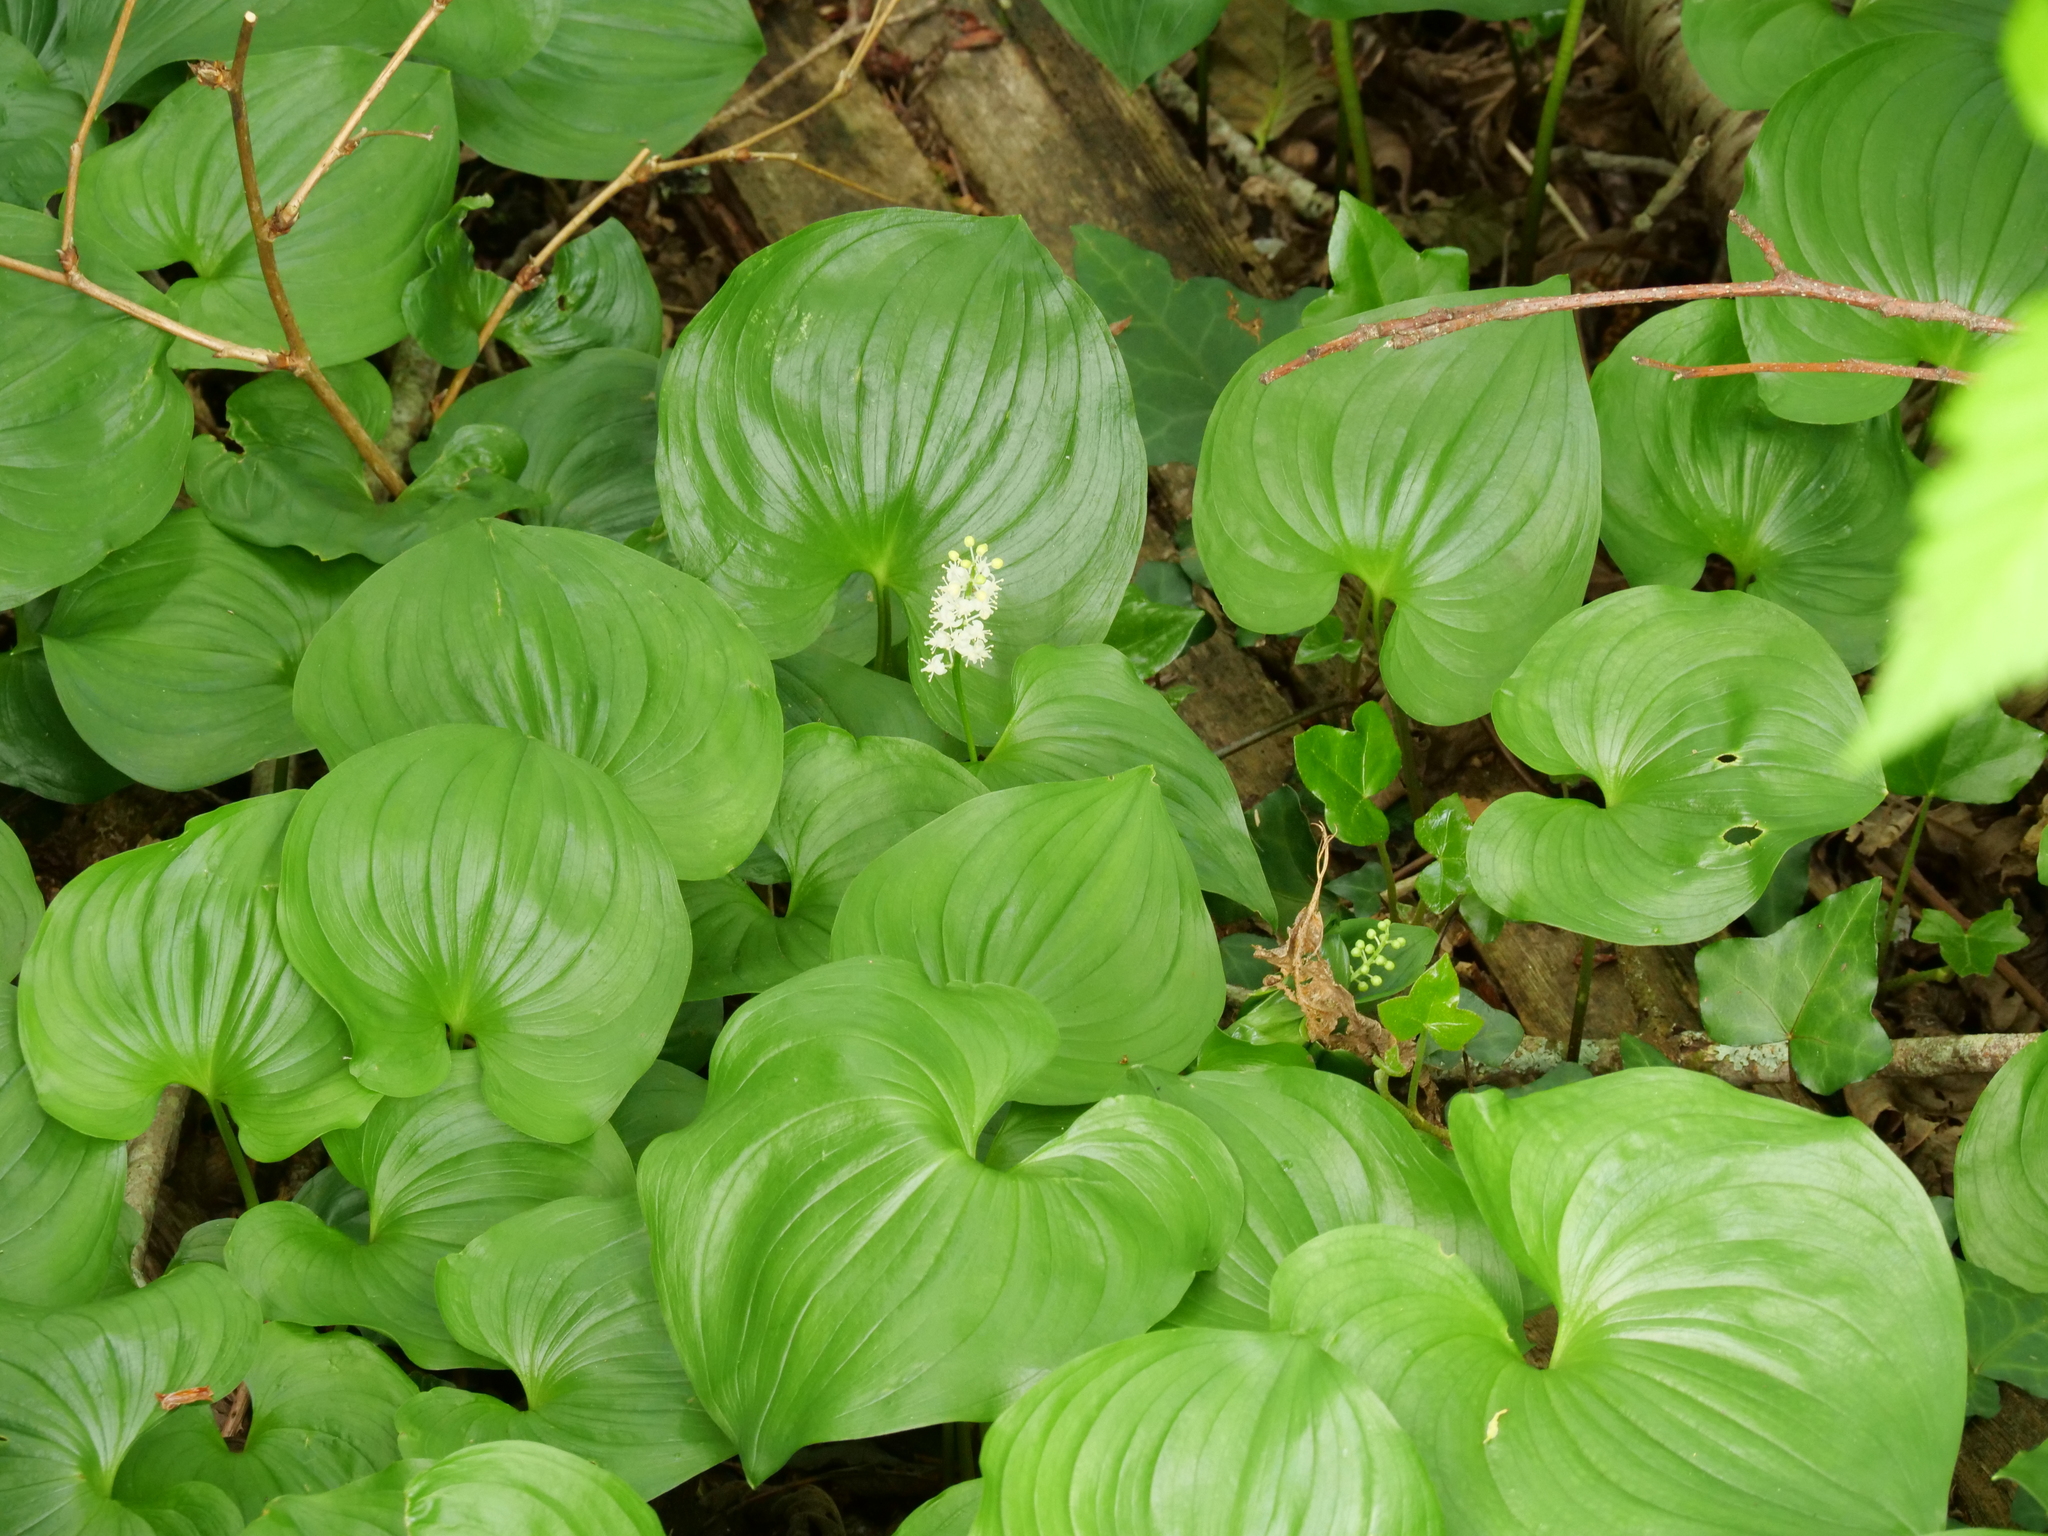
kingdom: Plantae
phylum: Tracheophyta
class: Liliopsida
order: Asparagales
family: Asparagaceae
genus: Maianthemum
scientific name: Maianthemum dilatatum
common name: False lily-of-the-valley
